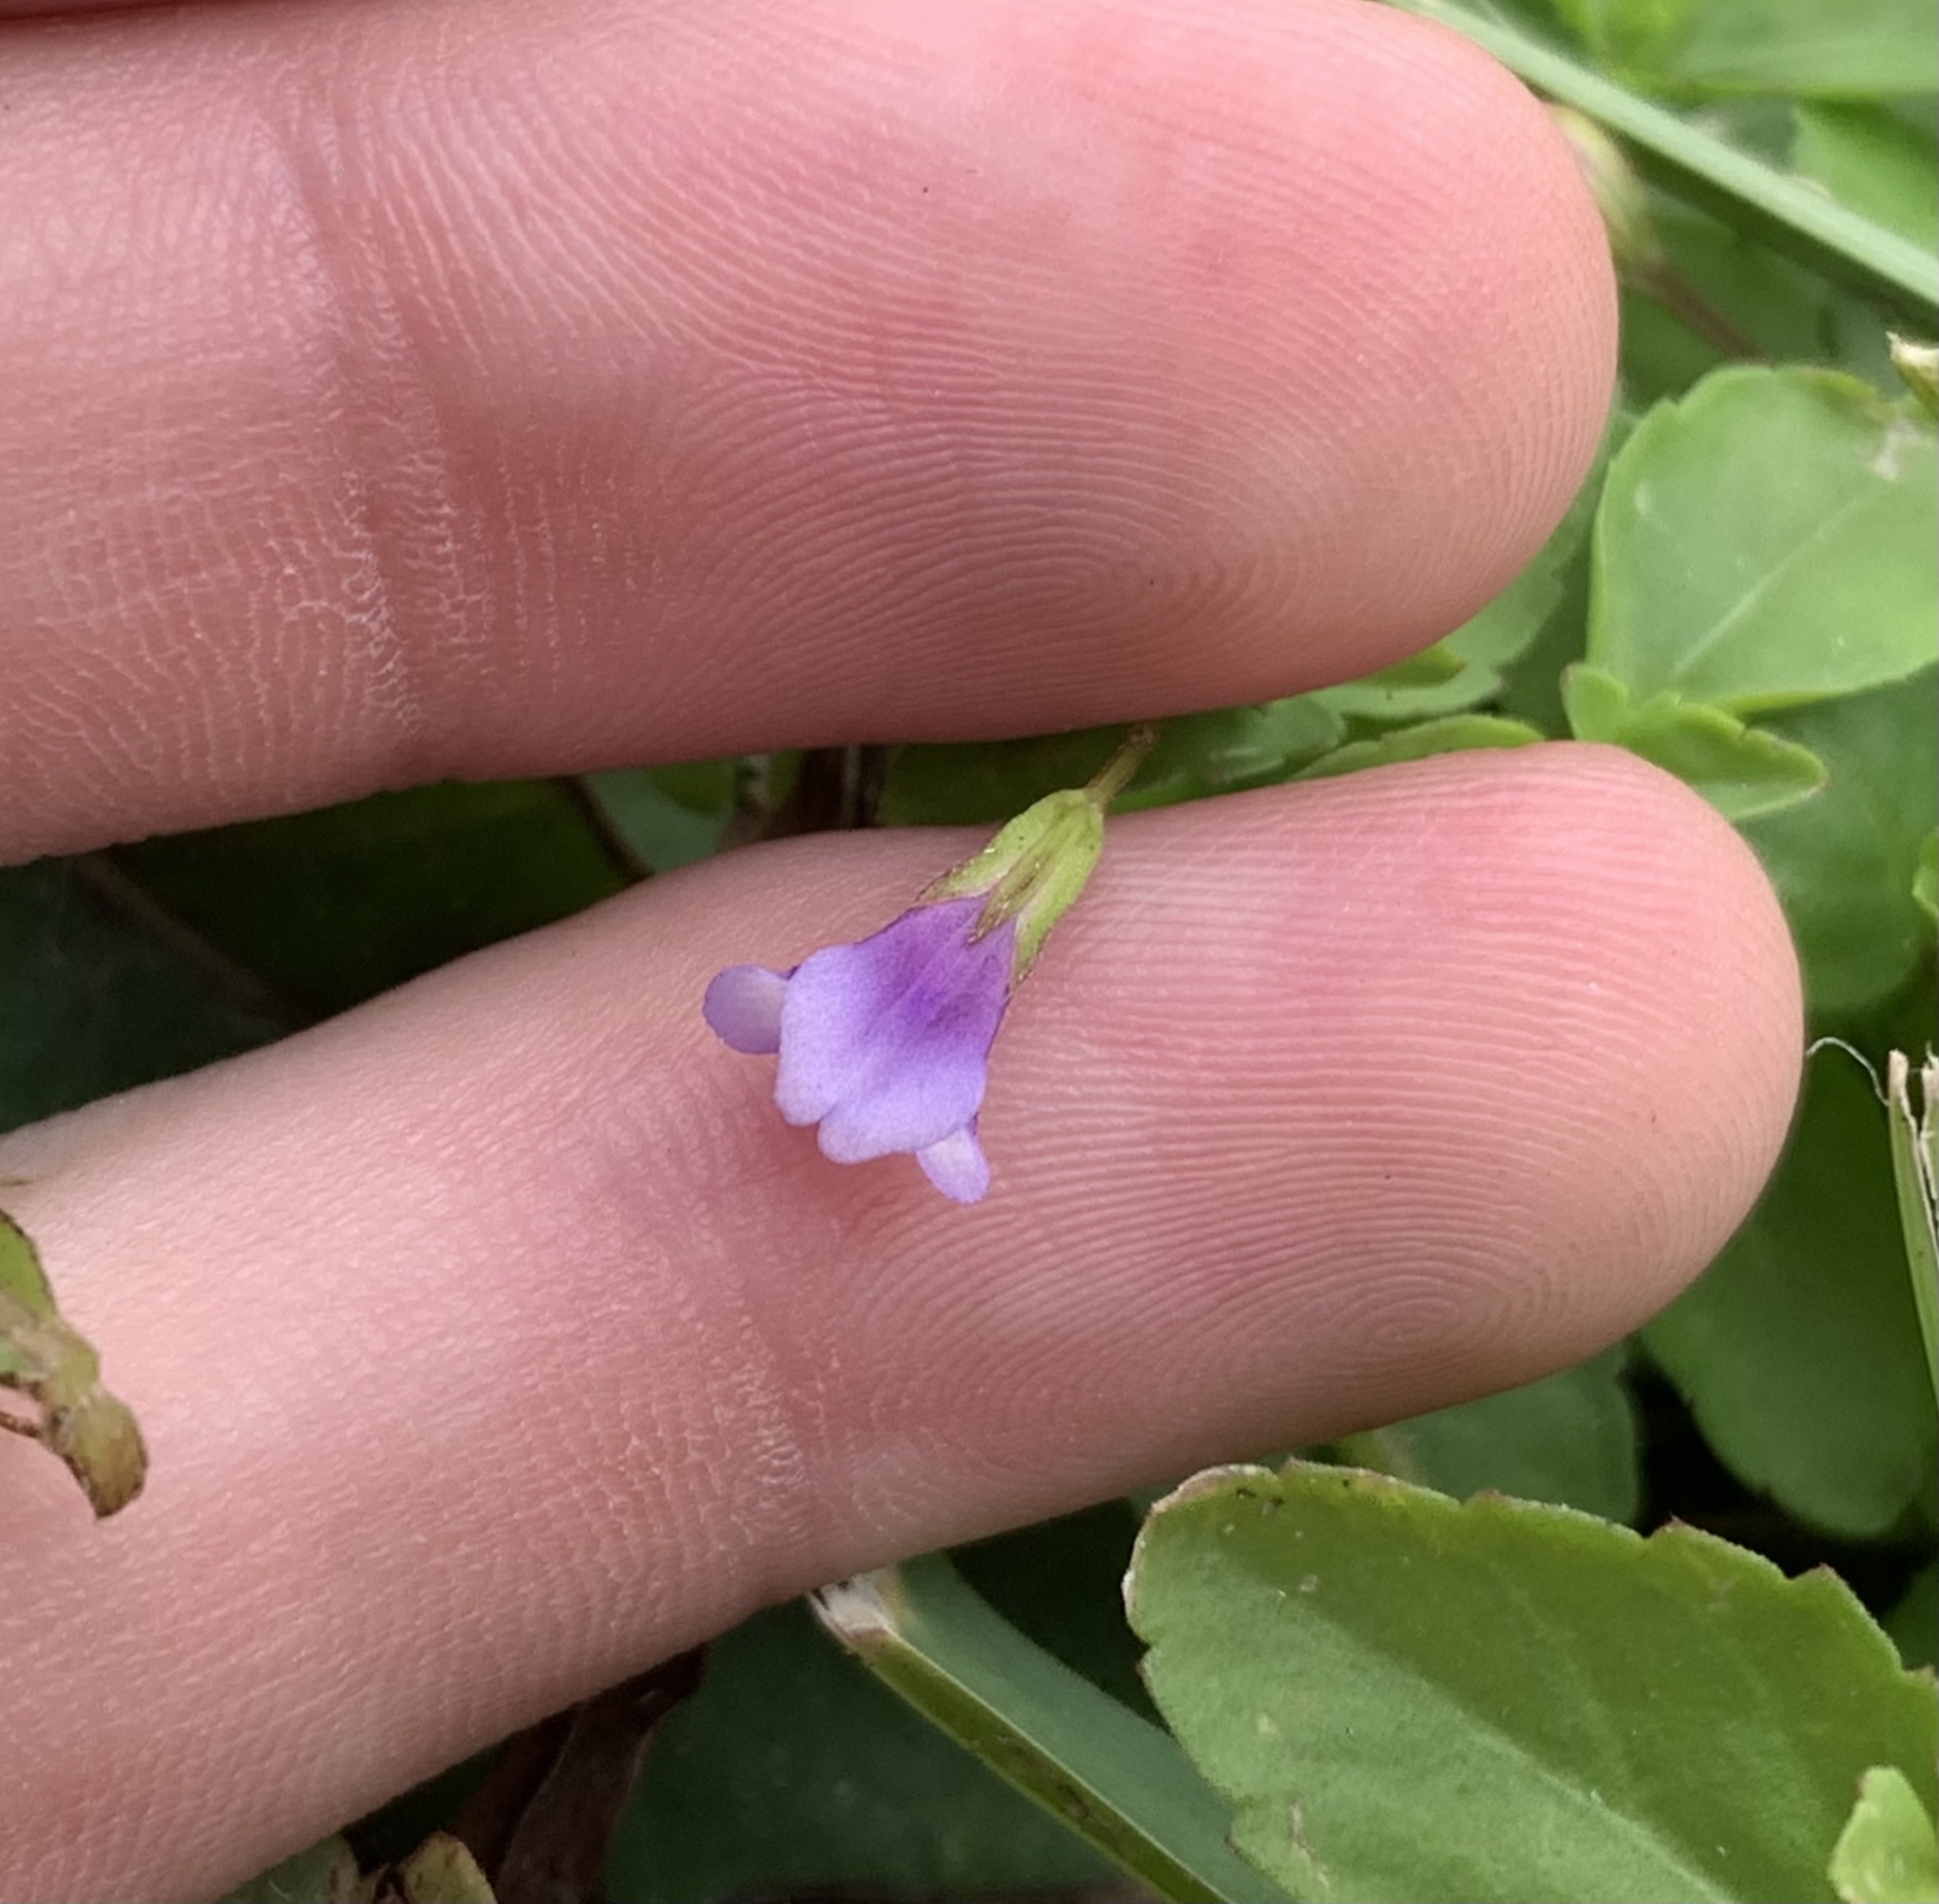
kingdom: Plantae
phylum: Tracheophyta
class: Magnoliopsida
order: Lamiales
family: Linderniaceae
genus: Torenia
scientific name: Torenia crustacea
